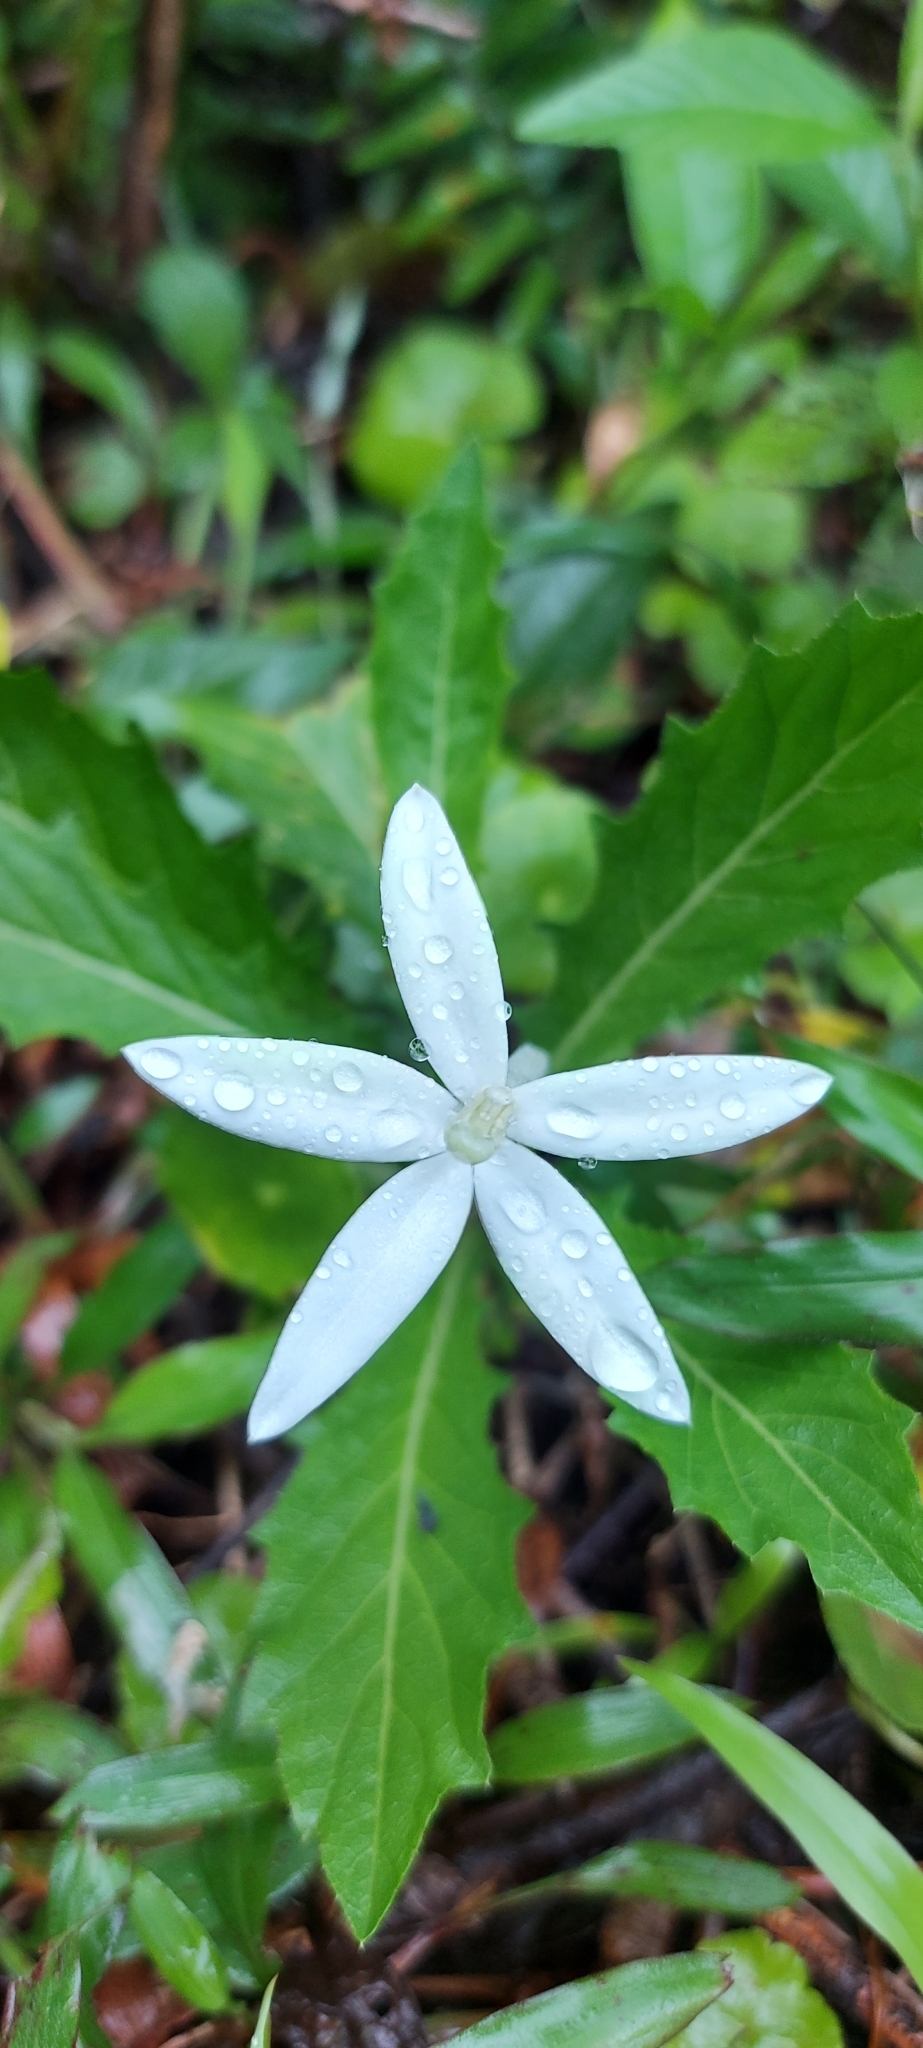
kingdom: Plantae
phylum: Tracheophyta
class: Magnoliopsida
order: Asterales
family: Campanulaceae
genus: Hippobroma
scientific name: Hippobroma longiflora
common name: Madamfate
